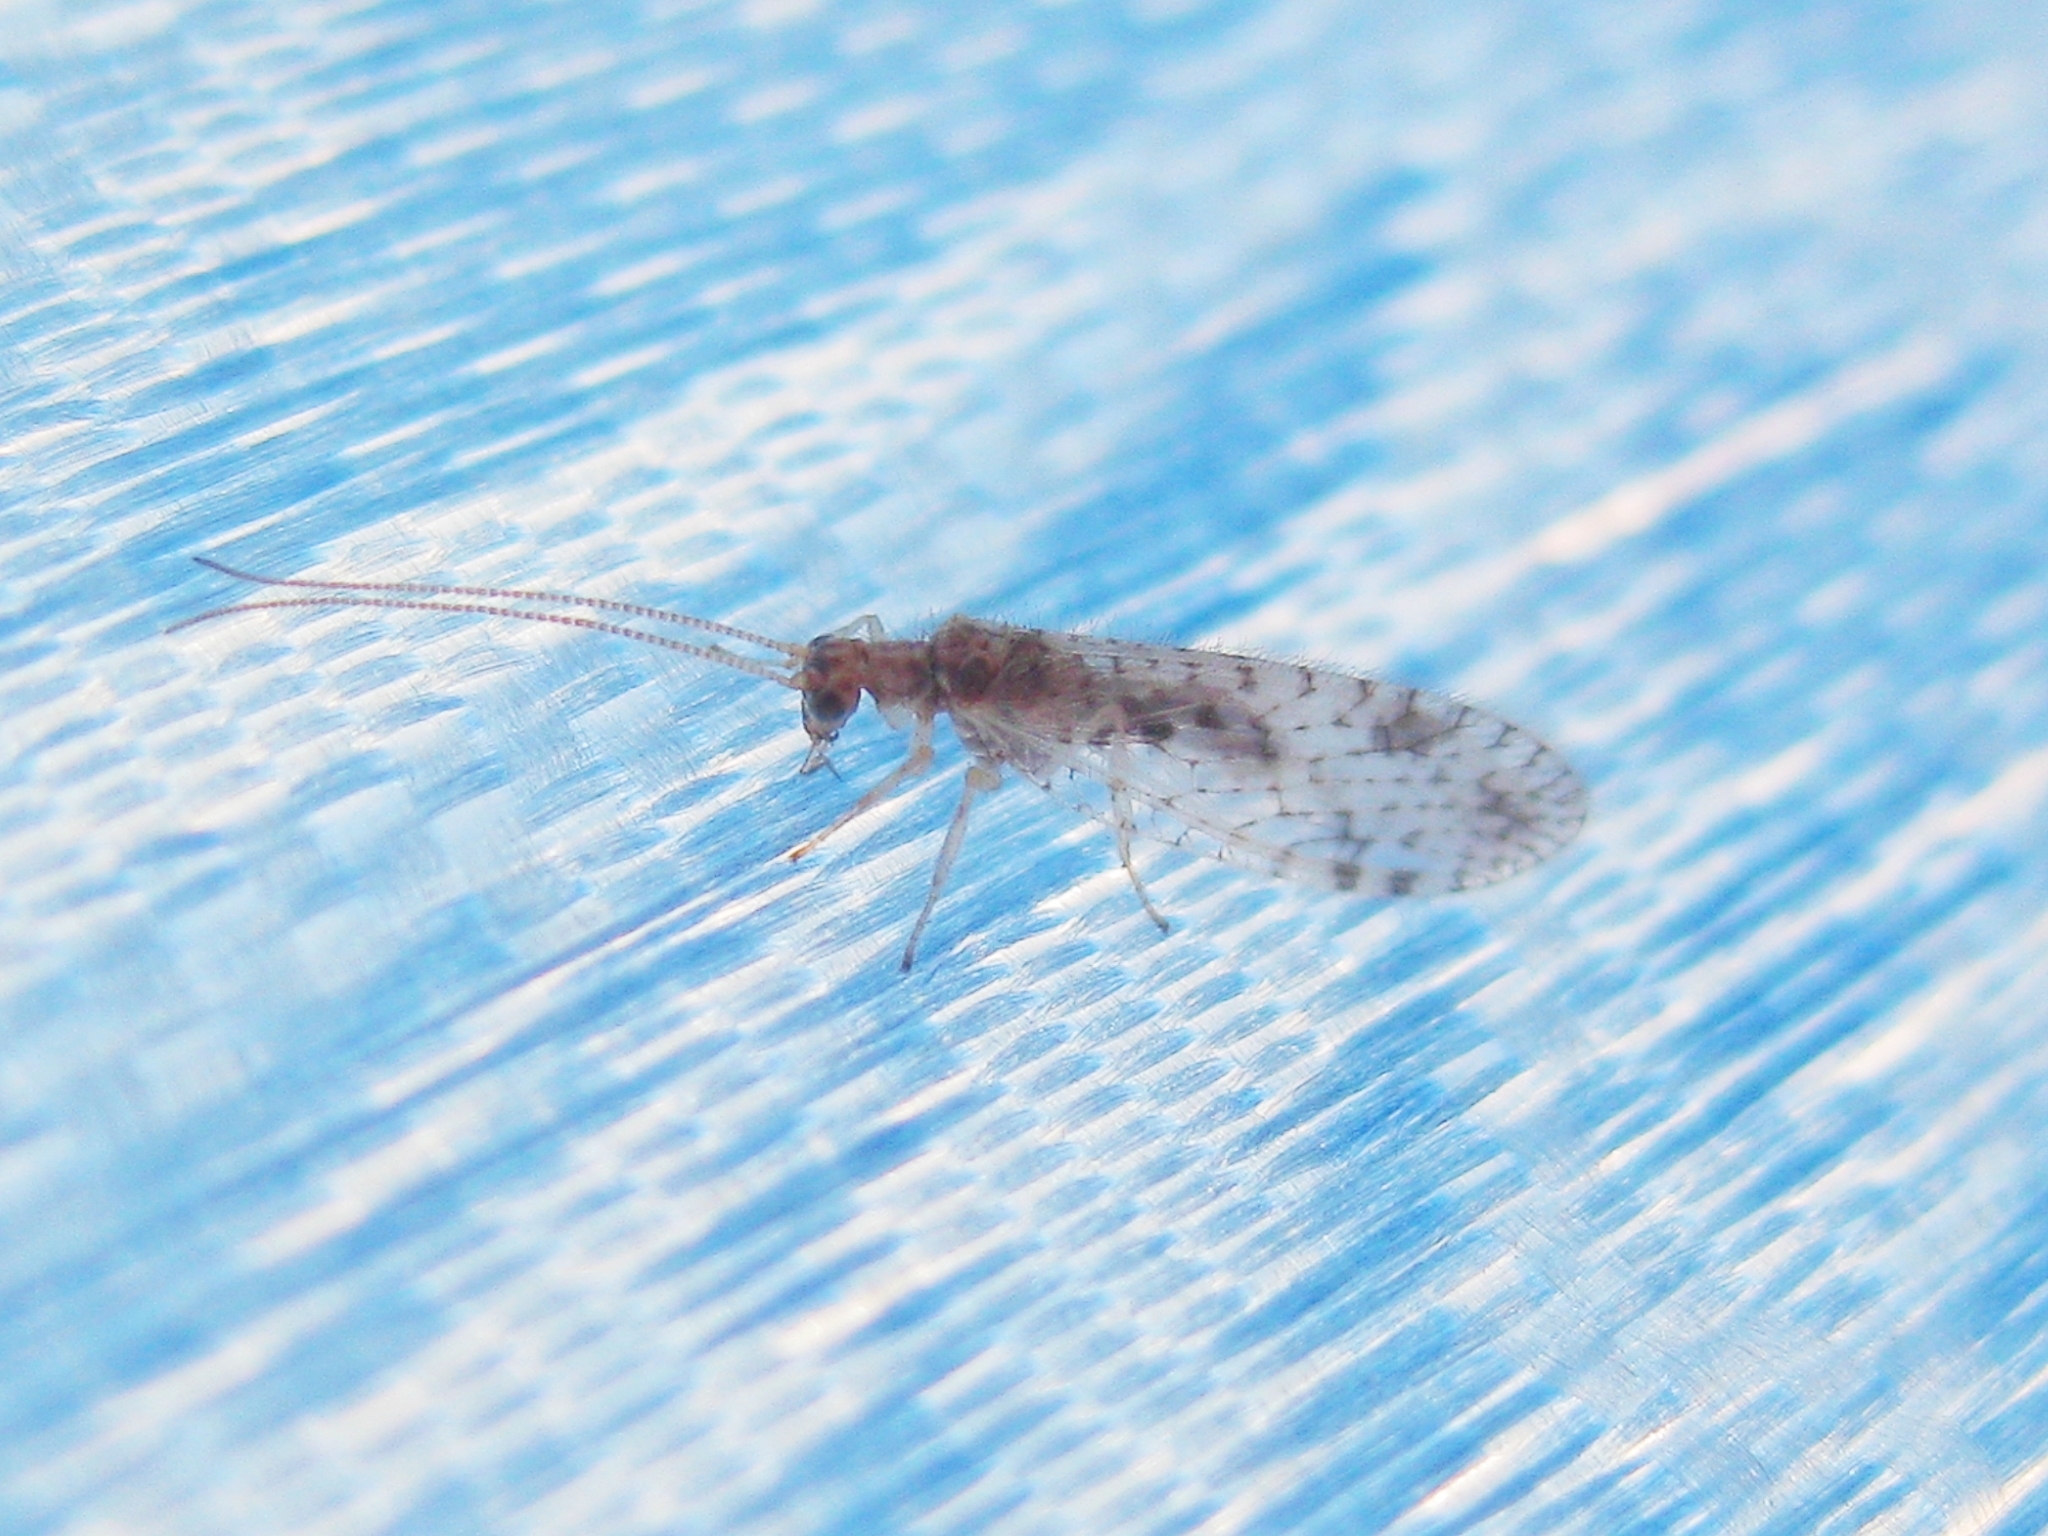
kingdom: Animalia
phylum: Arthropoda
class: Insecta
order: Neuroptera
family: Hemerobiidae
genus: Micromus
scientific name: Micromus variegatus
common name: Brown lacewing
